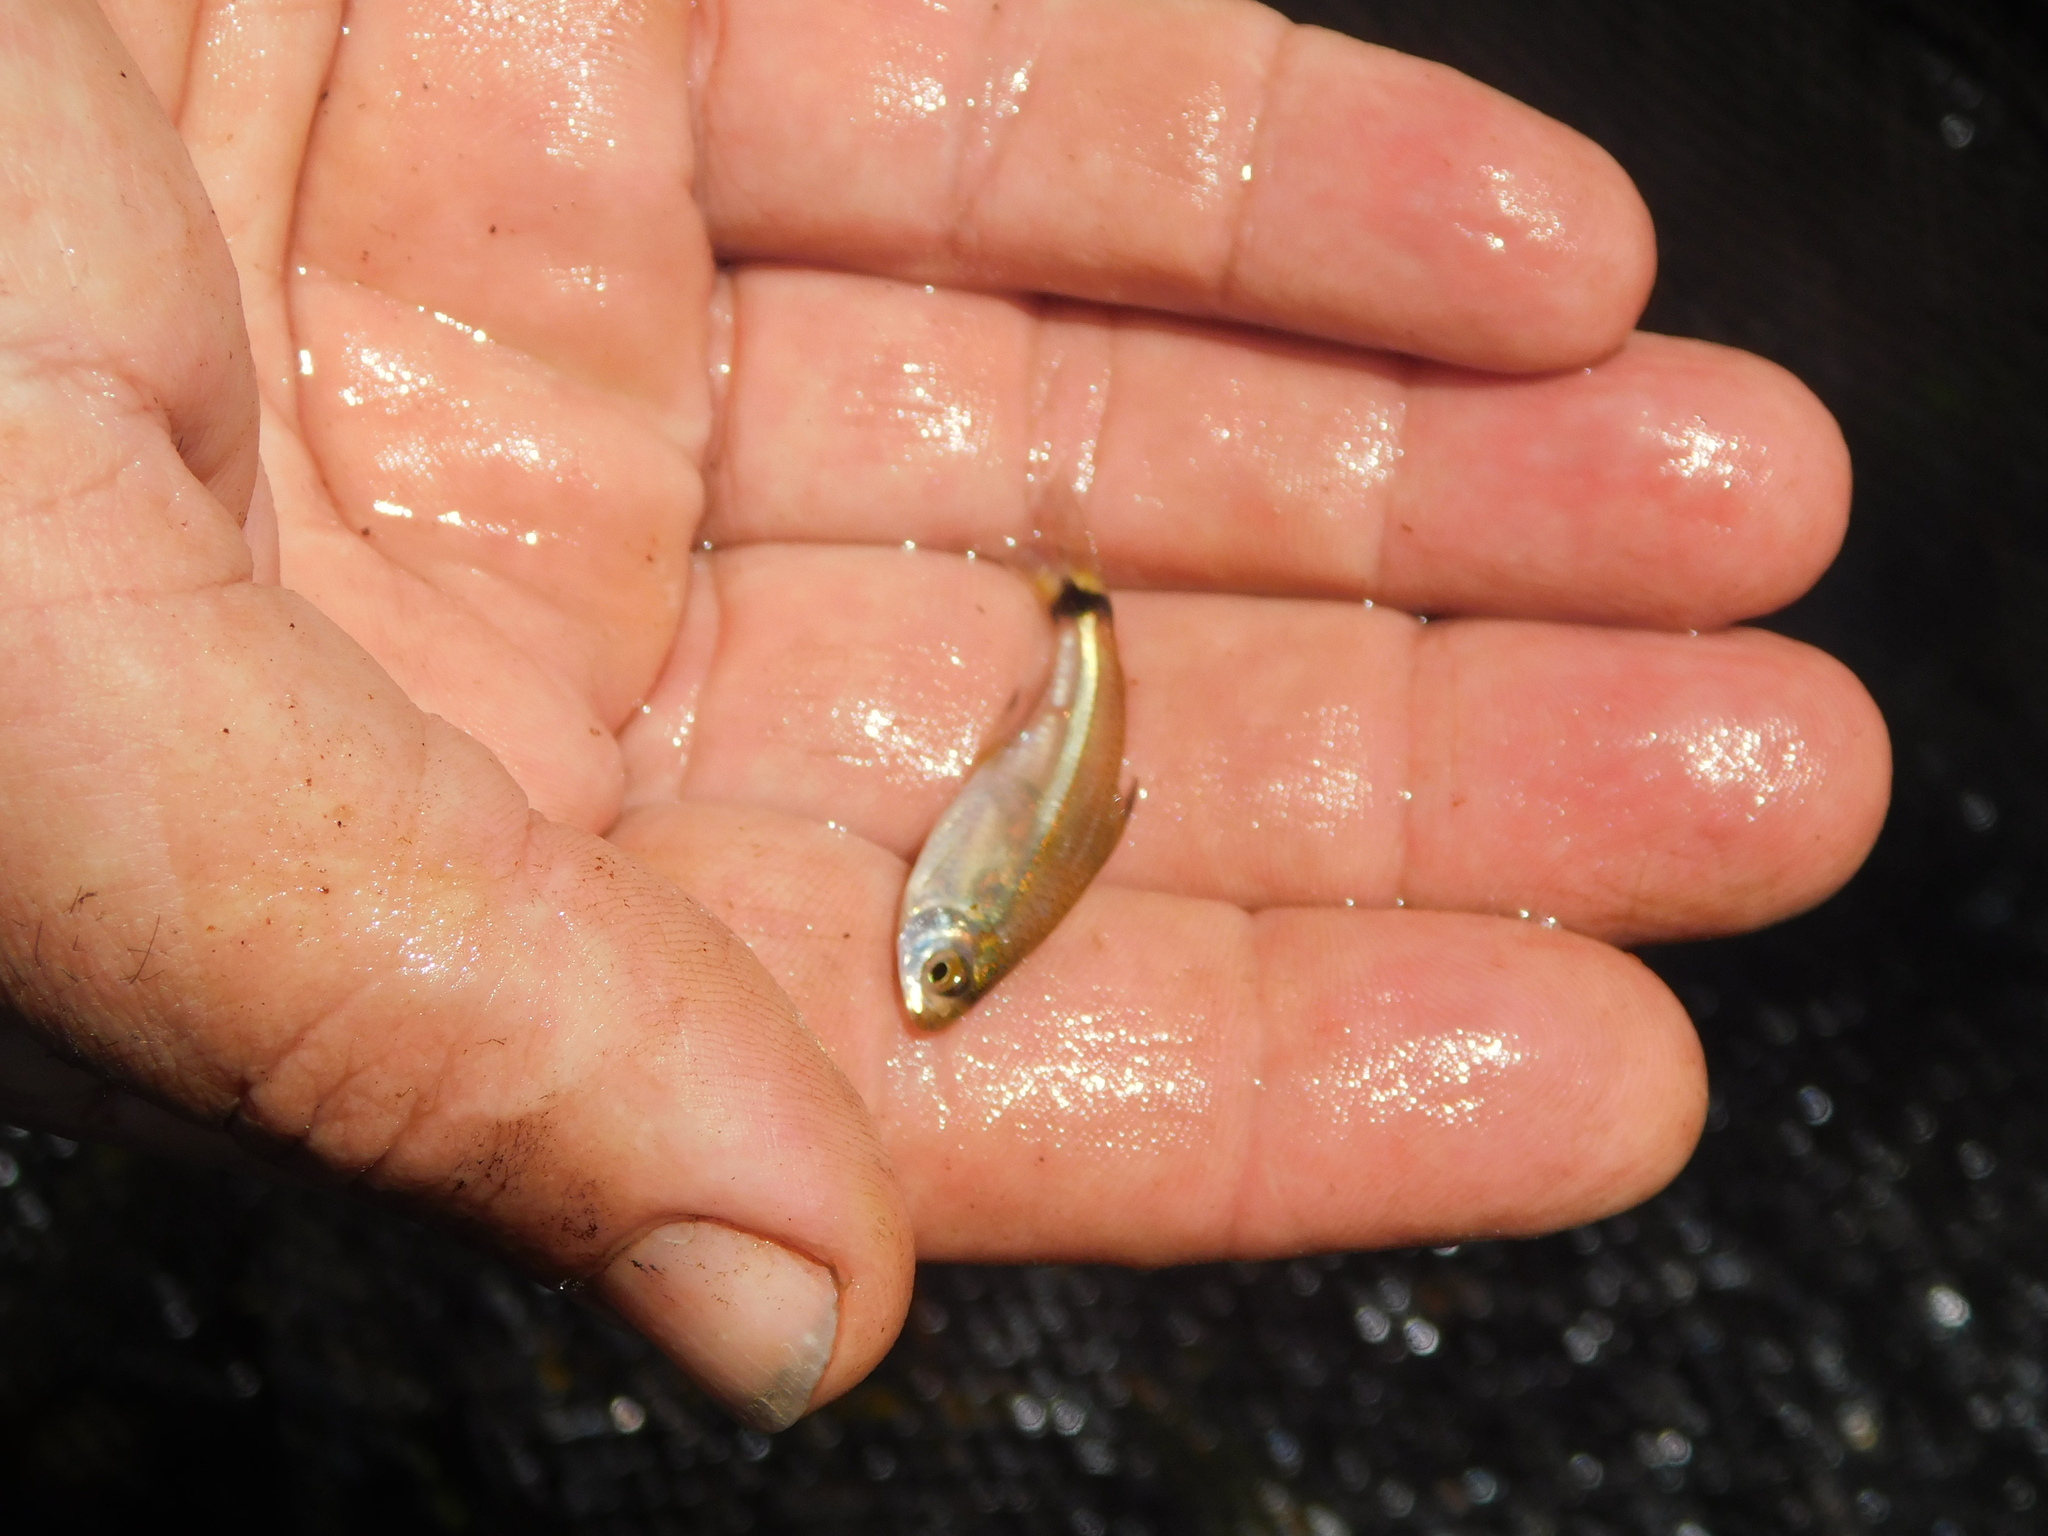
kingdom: Animalia
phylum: Chordata
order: Characiformes
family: Characidae
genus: Odontostilbe
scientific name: Odontostilbe pequira
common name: Tetra
